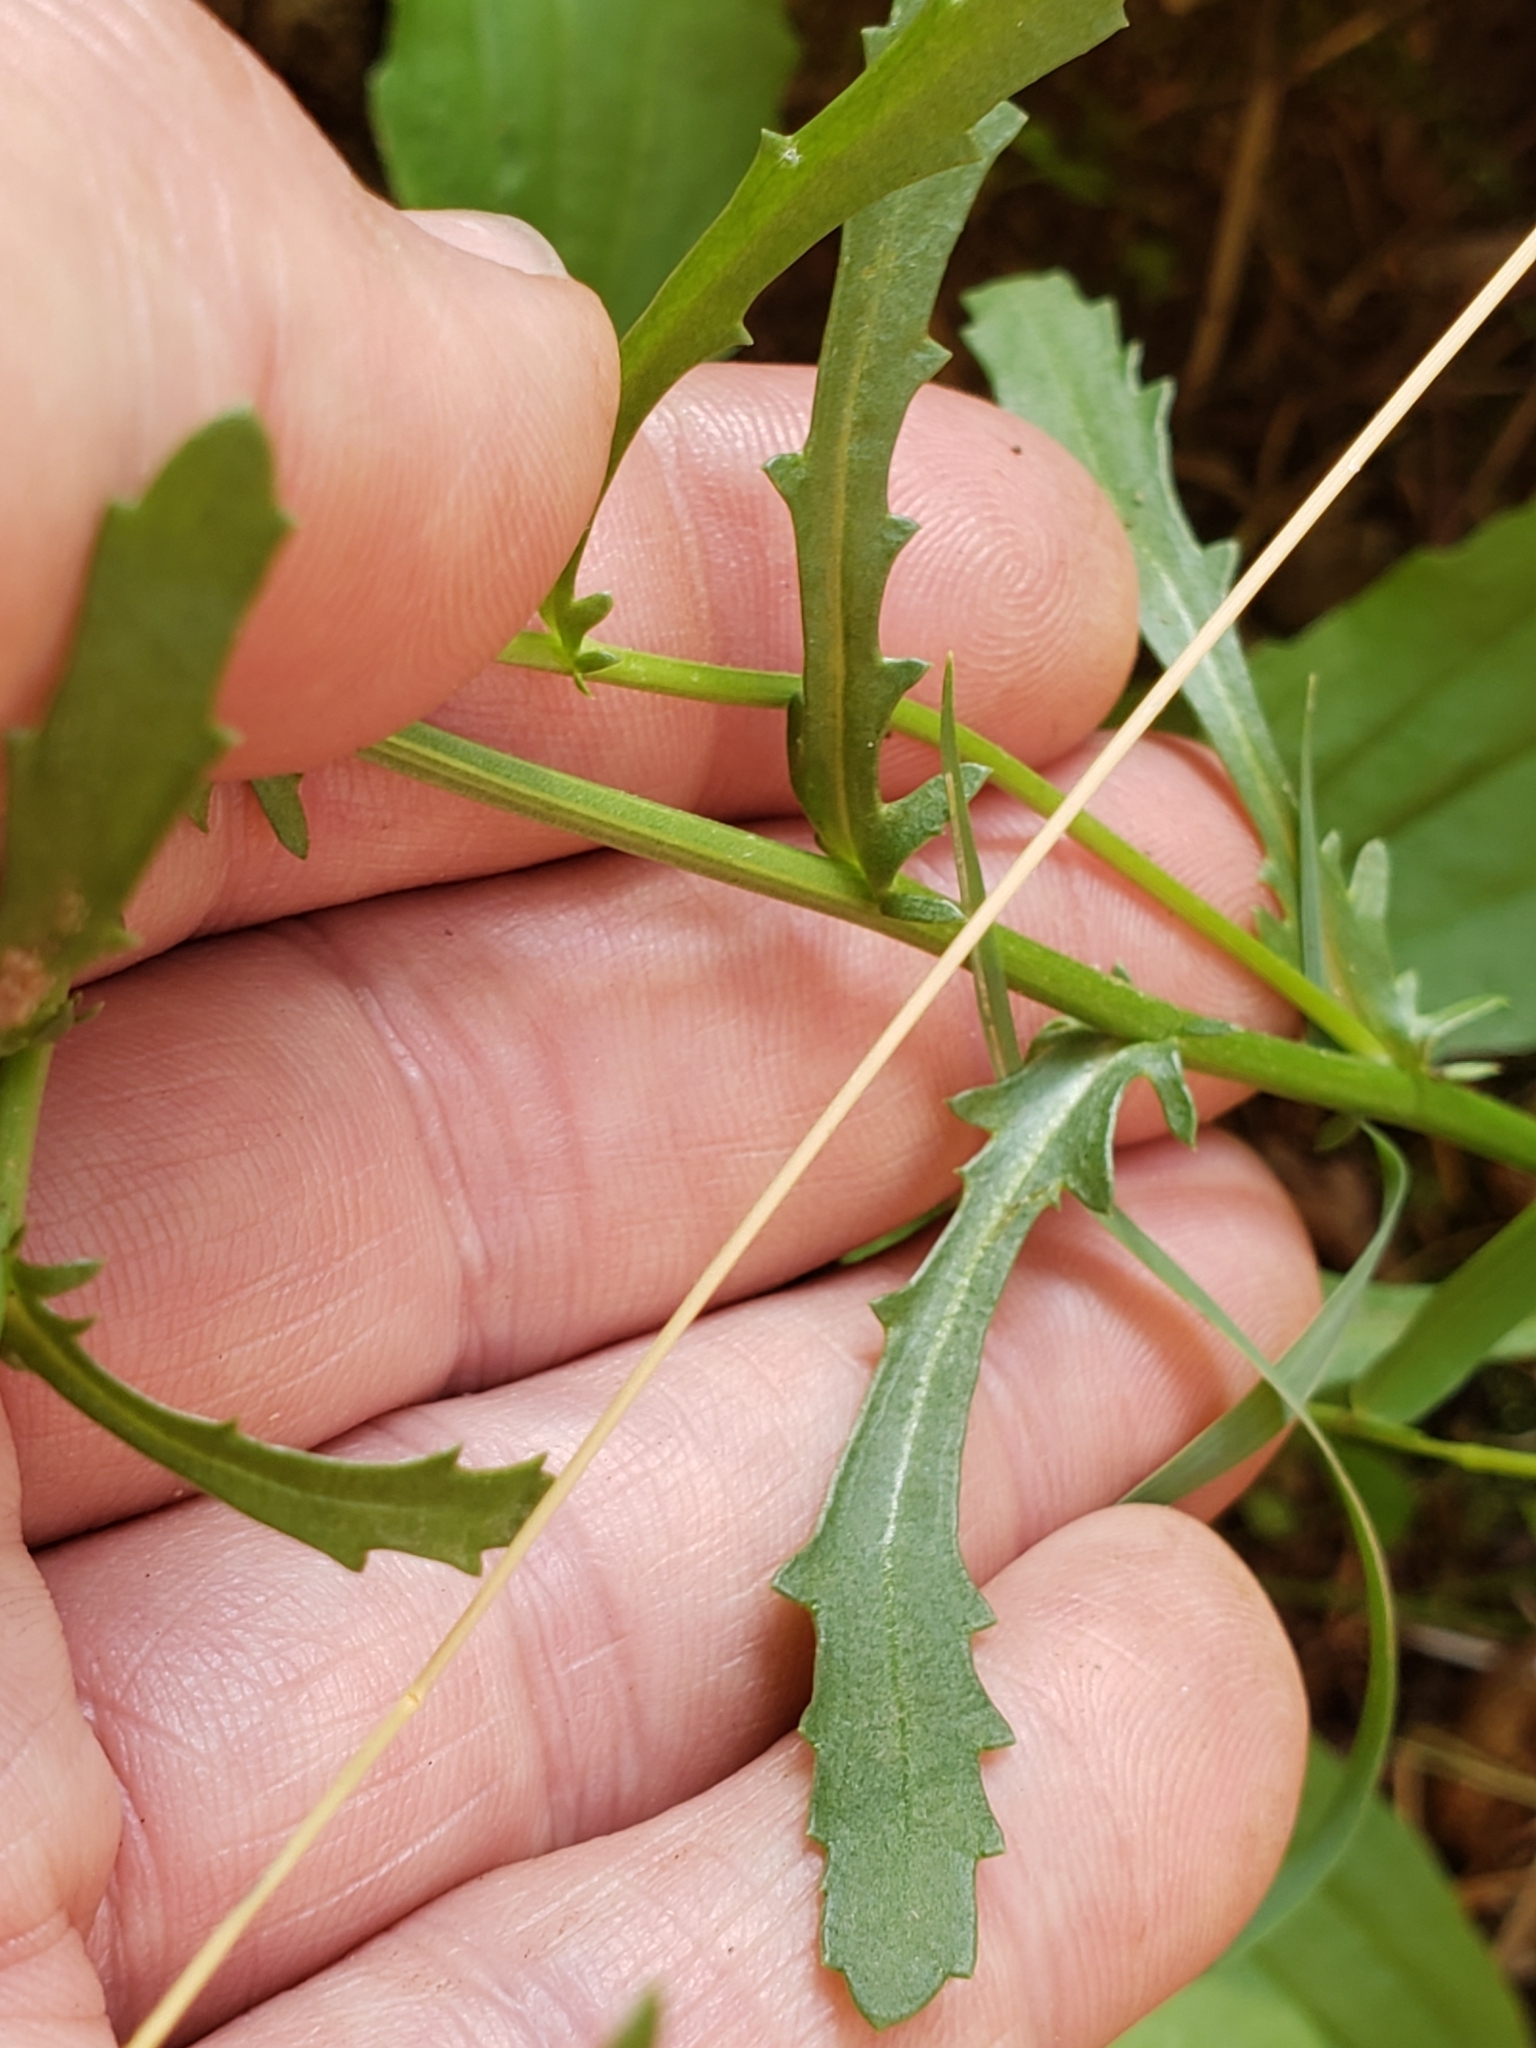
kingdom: Plantae
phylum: Tracheophyta
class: Magnoliopsida
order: Asterales
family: Asteraceae
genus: Leucanthemum
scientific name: Leucanthemum vulgare
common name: Oxeye daisy
